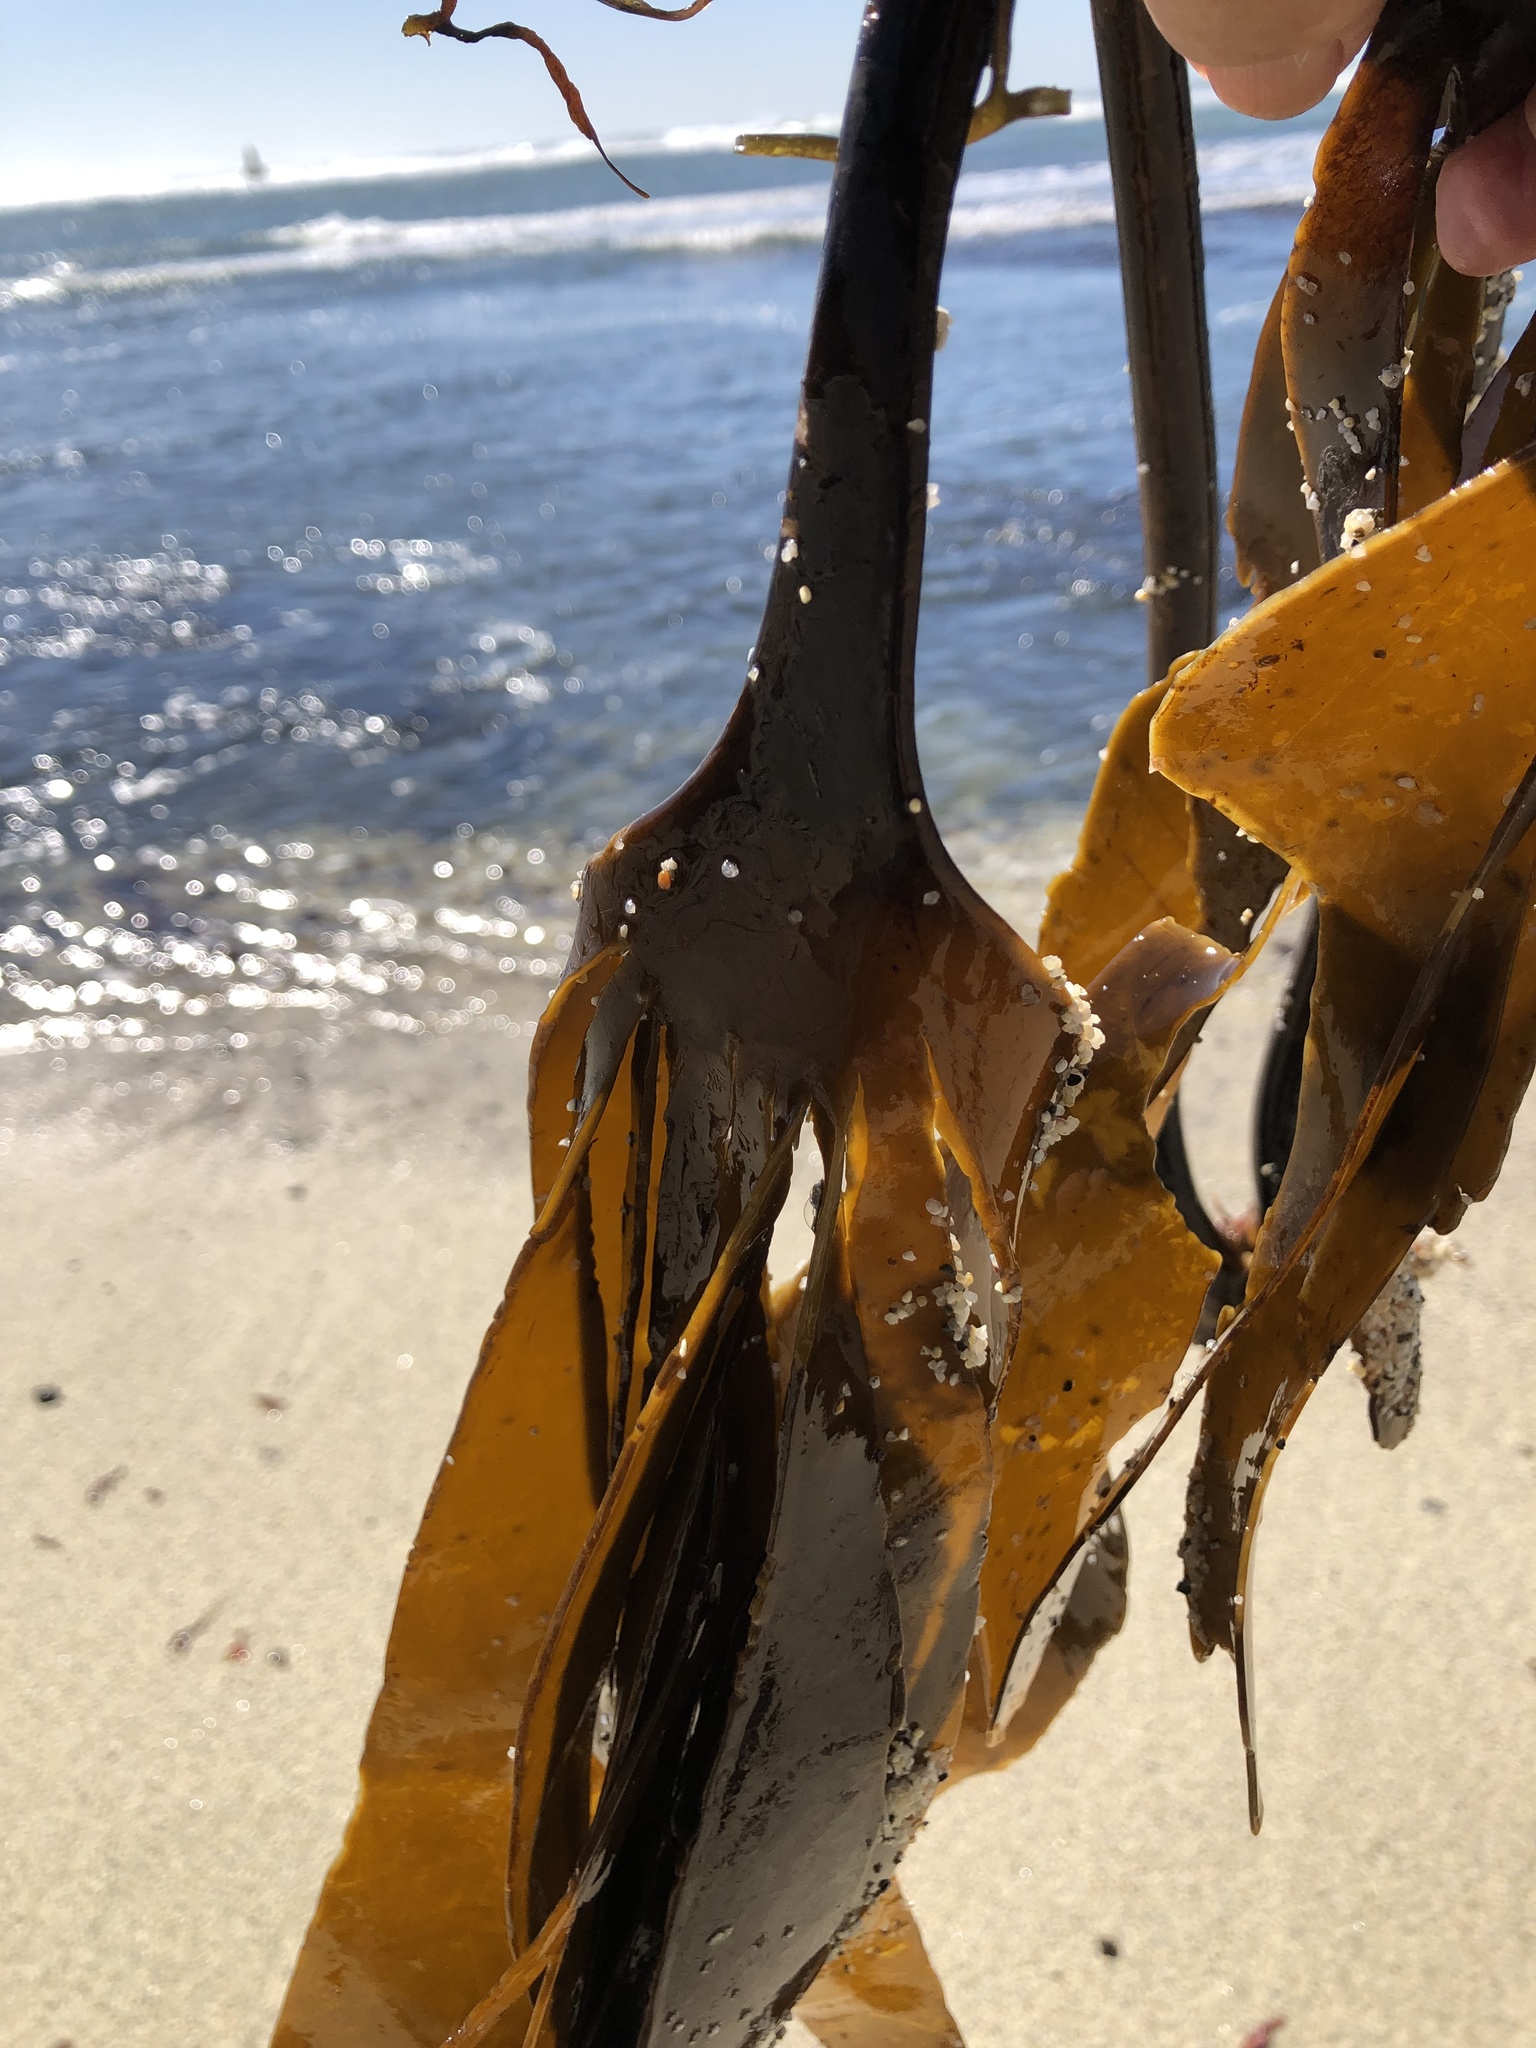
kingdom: Chromista
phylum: Ochrophyta
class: Phaeophyceae
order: Laminariales
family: Laminariaceae
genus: Laminaria
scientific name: Laminaria setchellii
